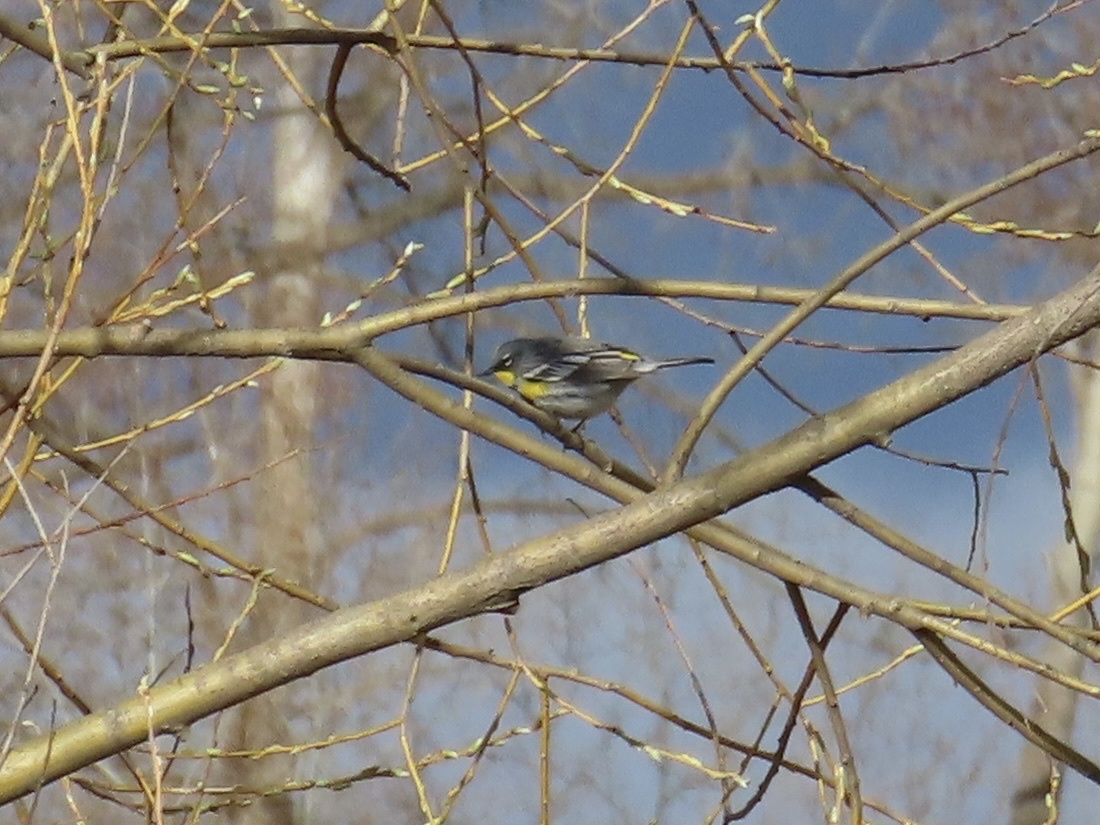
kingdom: Animalia
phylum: Chordata
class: Aves
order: Passeriformes
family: Parulidae
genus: Setophaga
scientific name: Setophaga coronata
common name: Myrtle warbler
